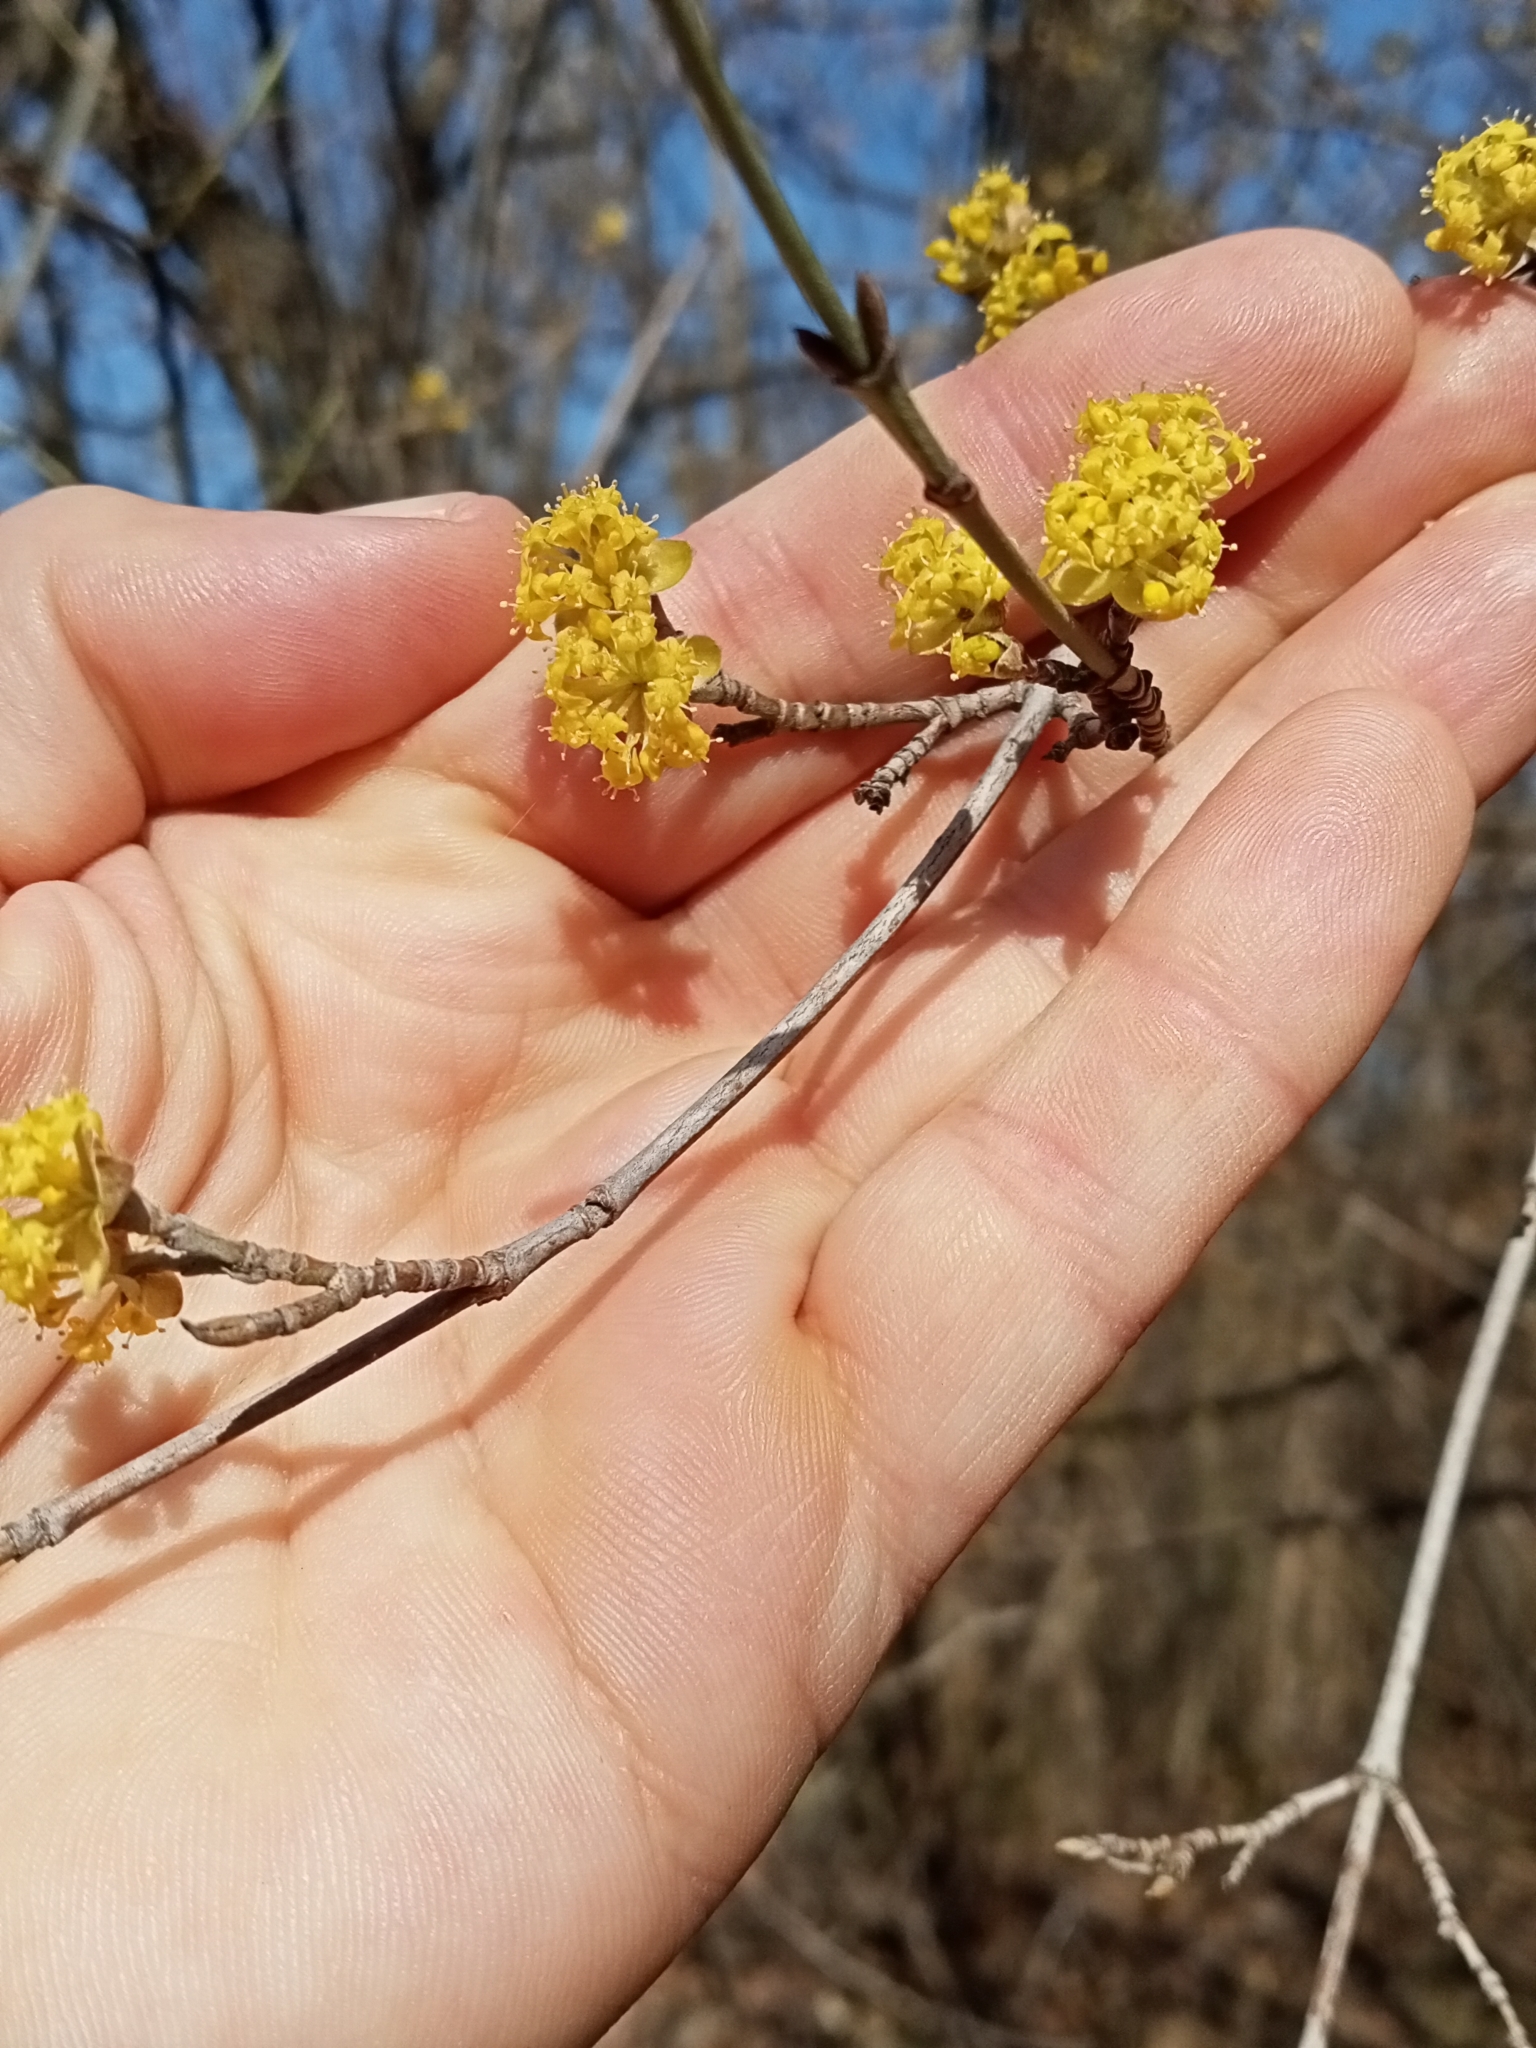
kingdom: Plantae
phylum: Tracheophyta
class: Magnoliopsida
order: Cornales
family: Cornaceae
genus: Cornus
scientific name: Cornus mas
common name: Cornelian-cherry
